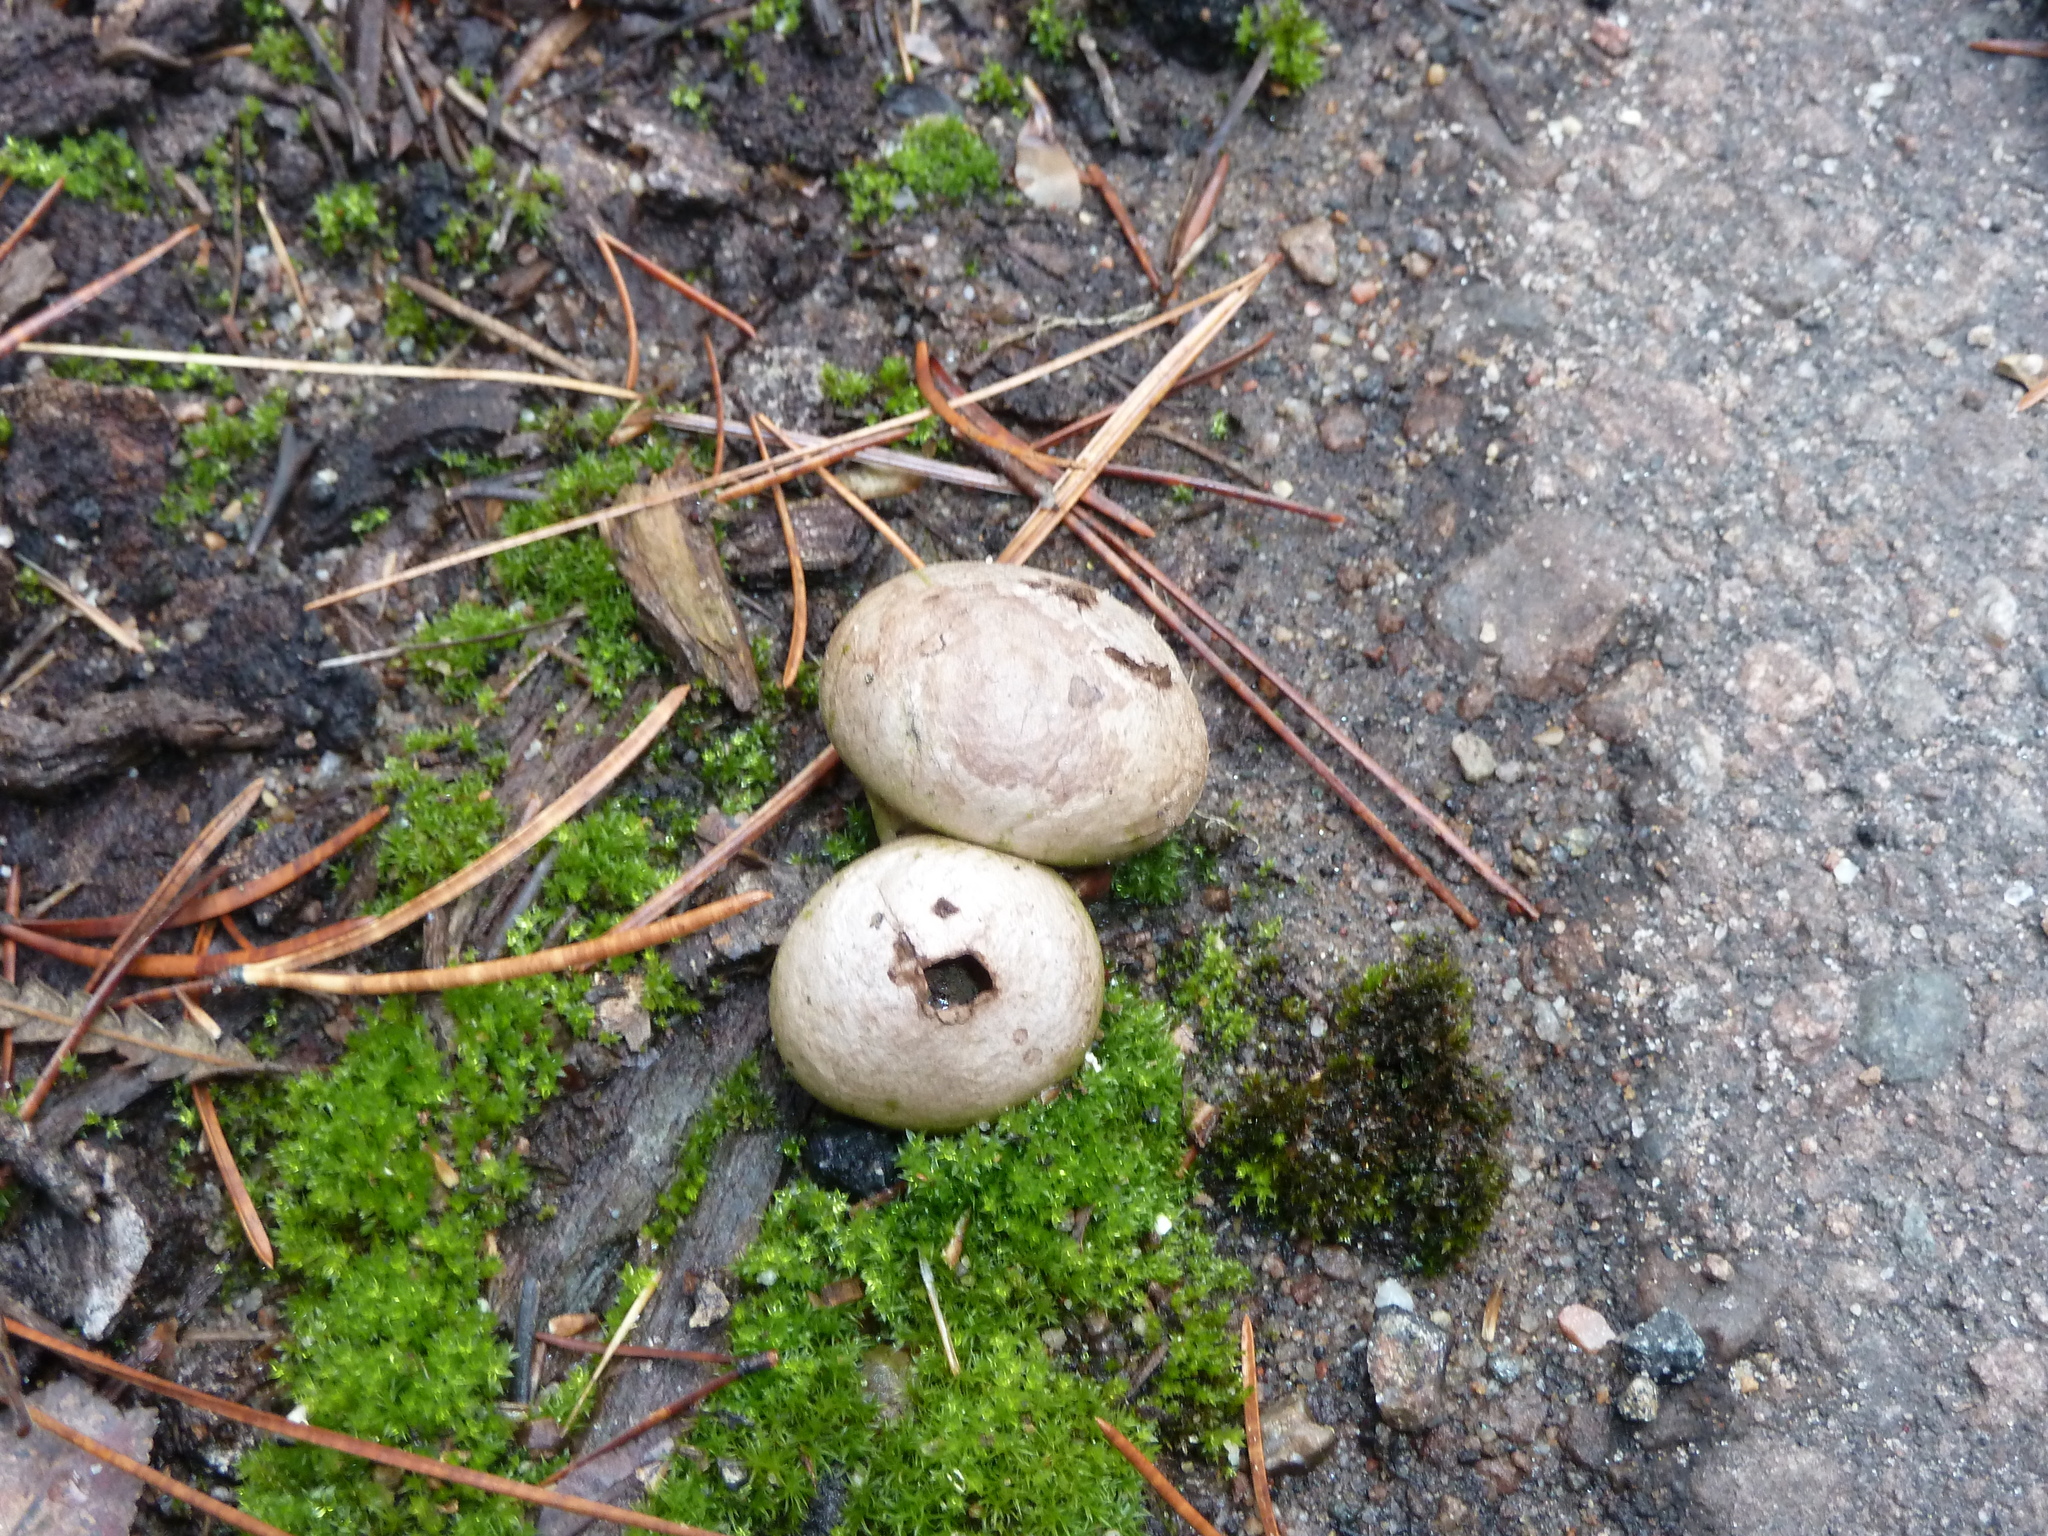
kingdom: Fungi
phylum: Basidiomycota
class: Agaricomycetes
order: Agaricales
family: Lycoperdaceae
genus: Lycoperdon
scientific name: Lycoperdon perlatum
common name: Common puffball
